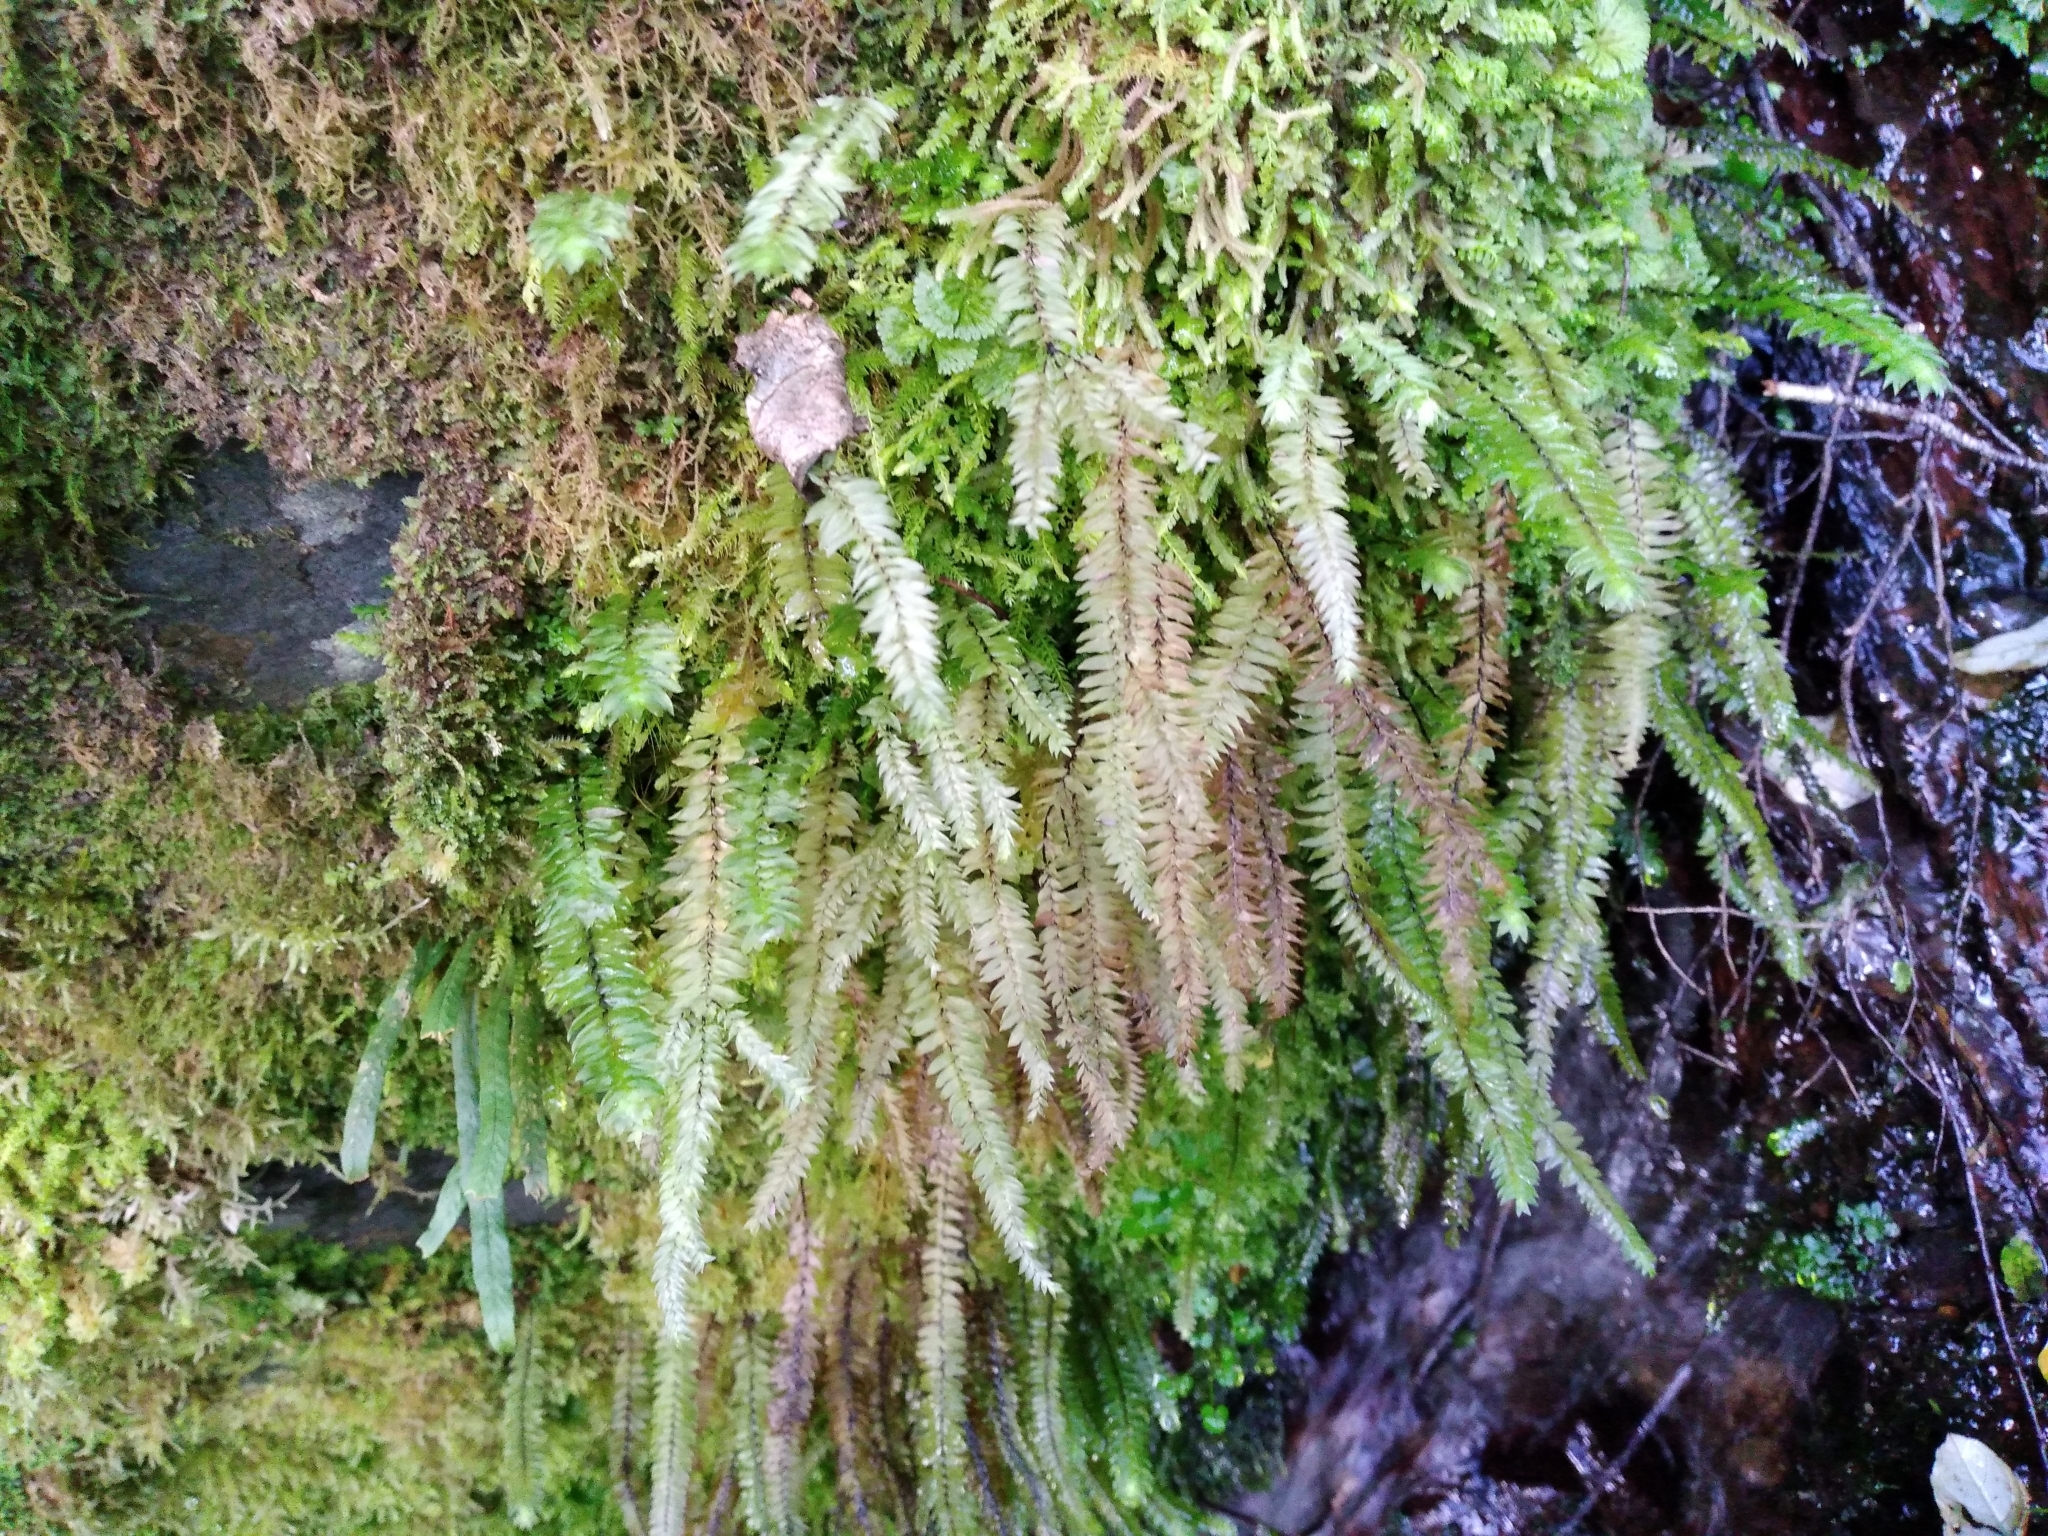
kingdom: Plantae
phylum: Bryophyta
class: Bryopsida
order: Hypopterygiales
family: Hypopterygiaceae
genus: Cyathophorum
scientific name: Cyathophorum bulbosum
